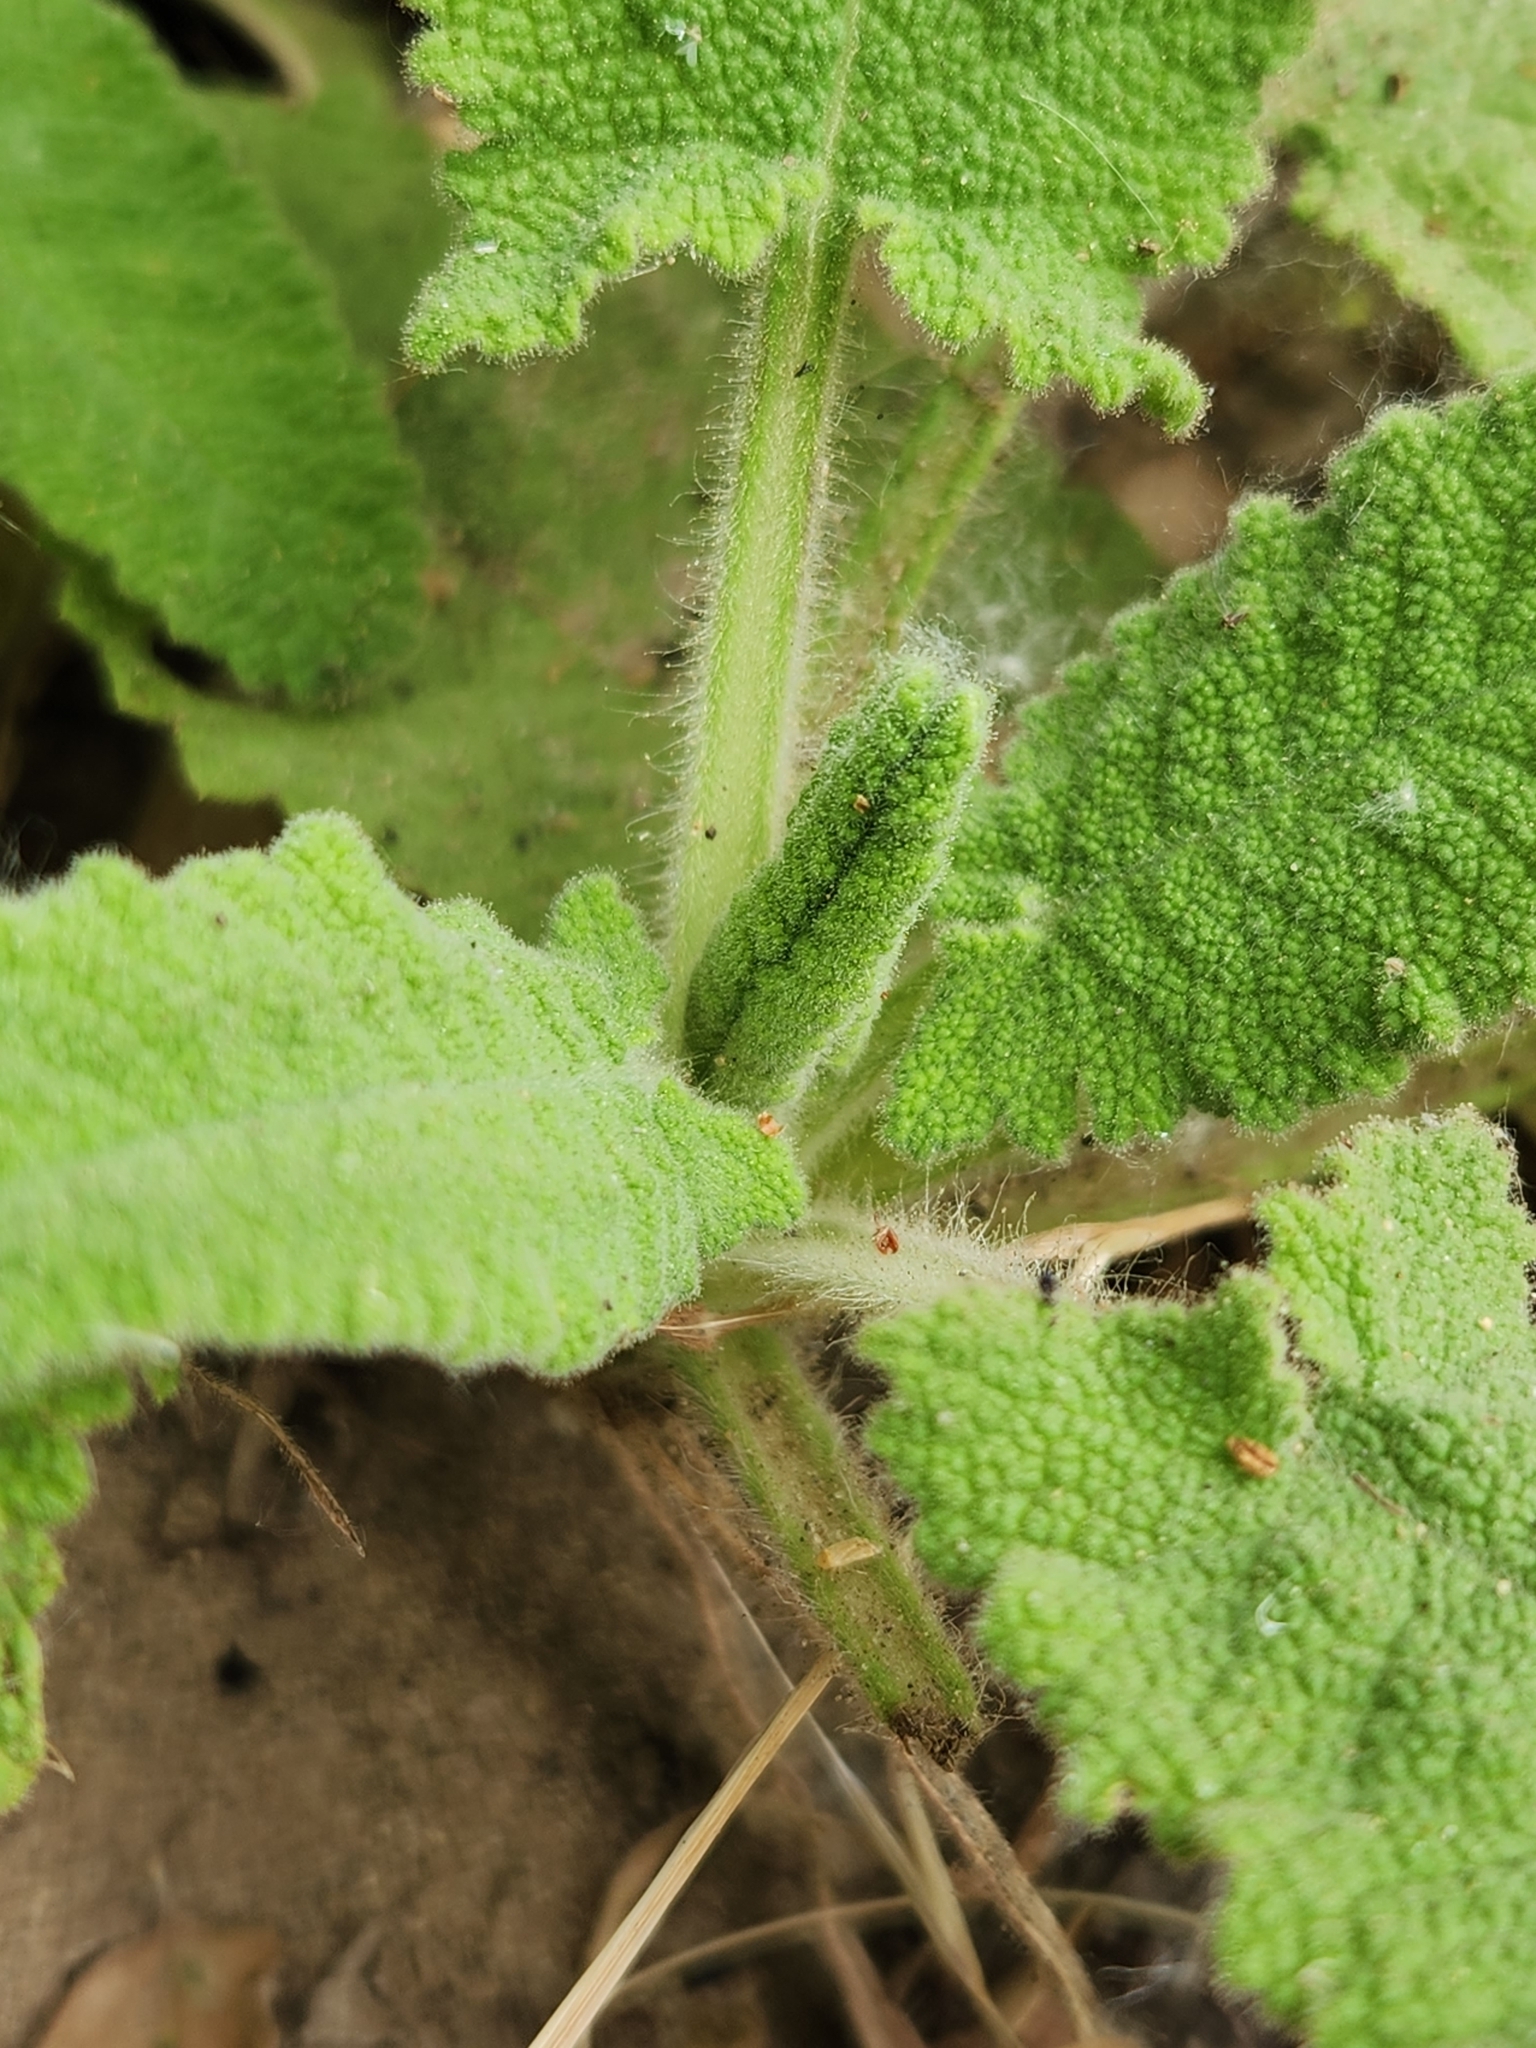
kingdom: Plantae
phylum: Tracheophyta
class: Magnoliopsida
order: Lamiales
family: Lamiaceae
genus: Salvia
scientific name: Salvia spathacea
